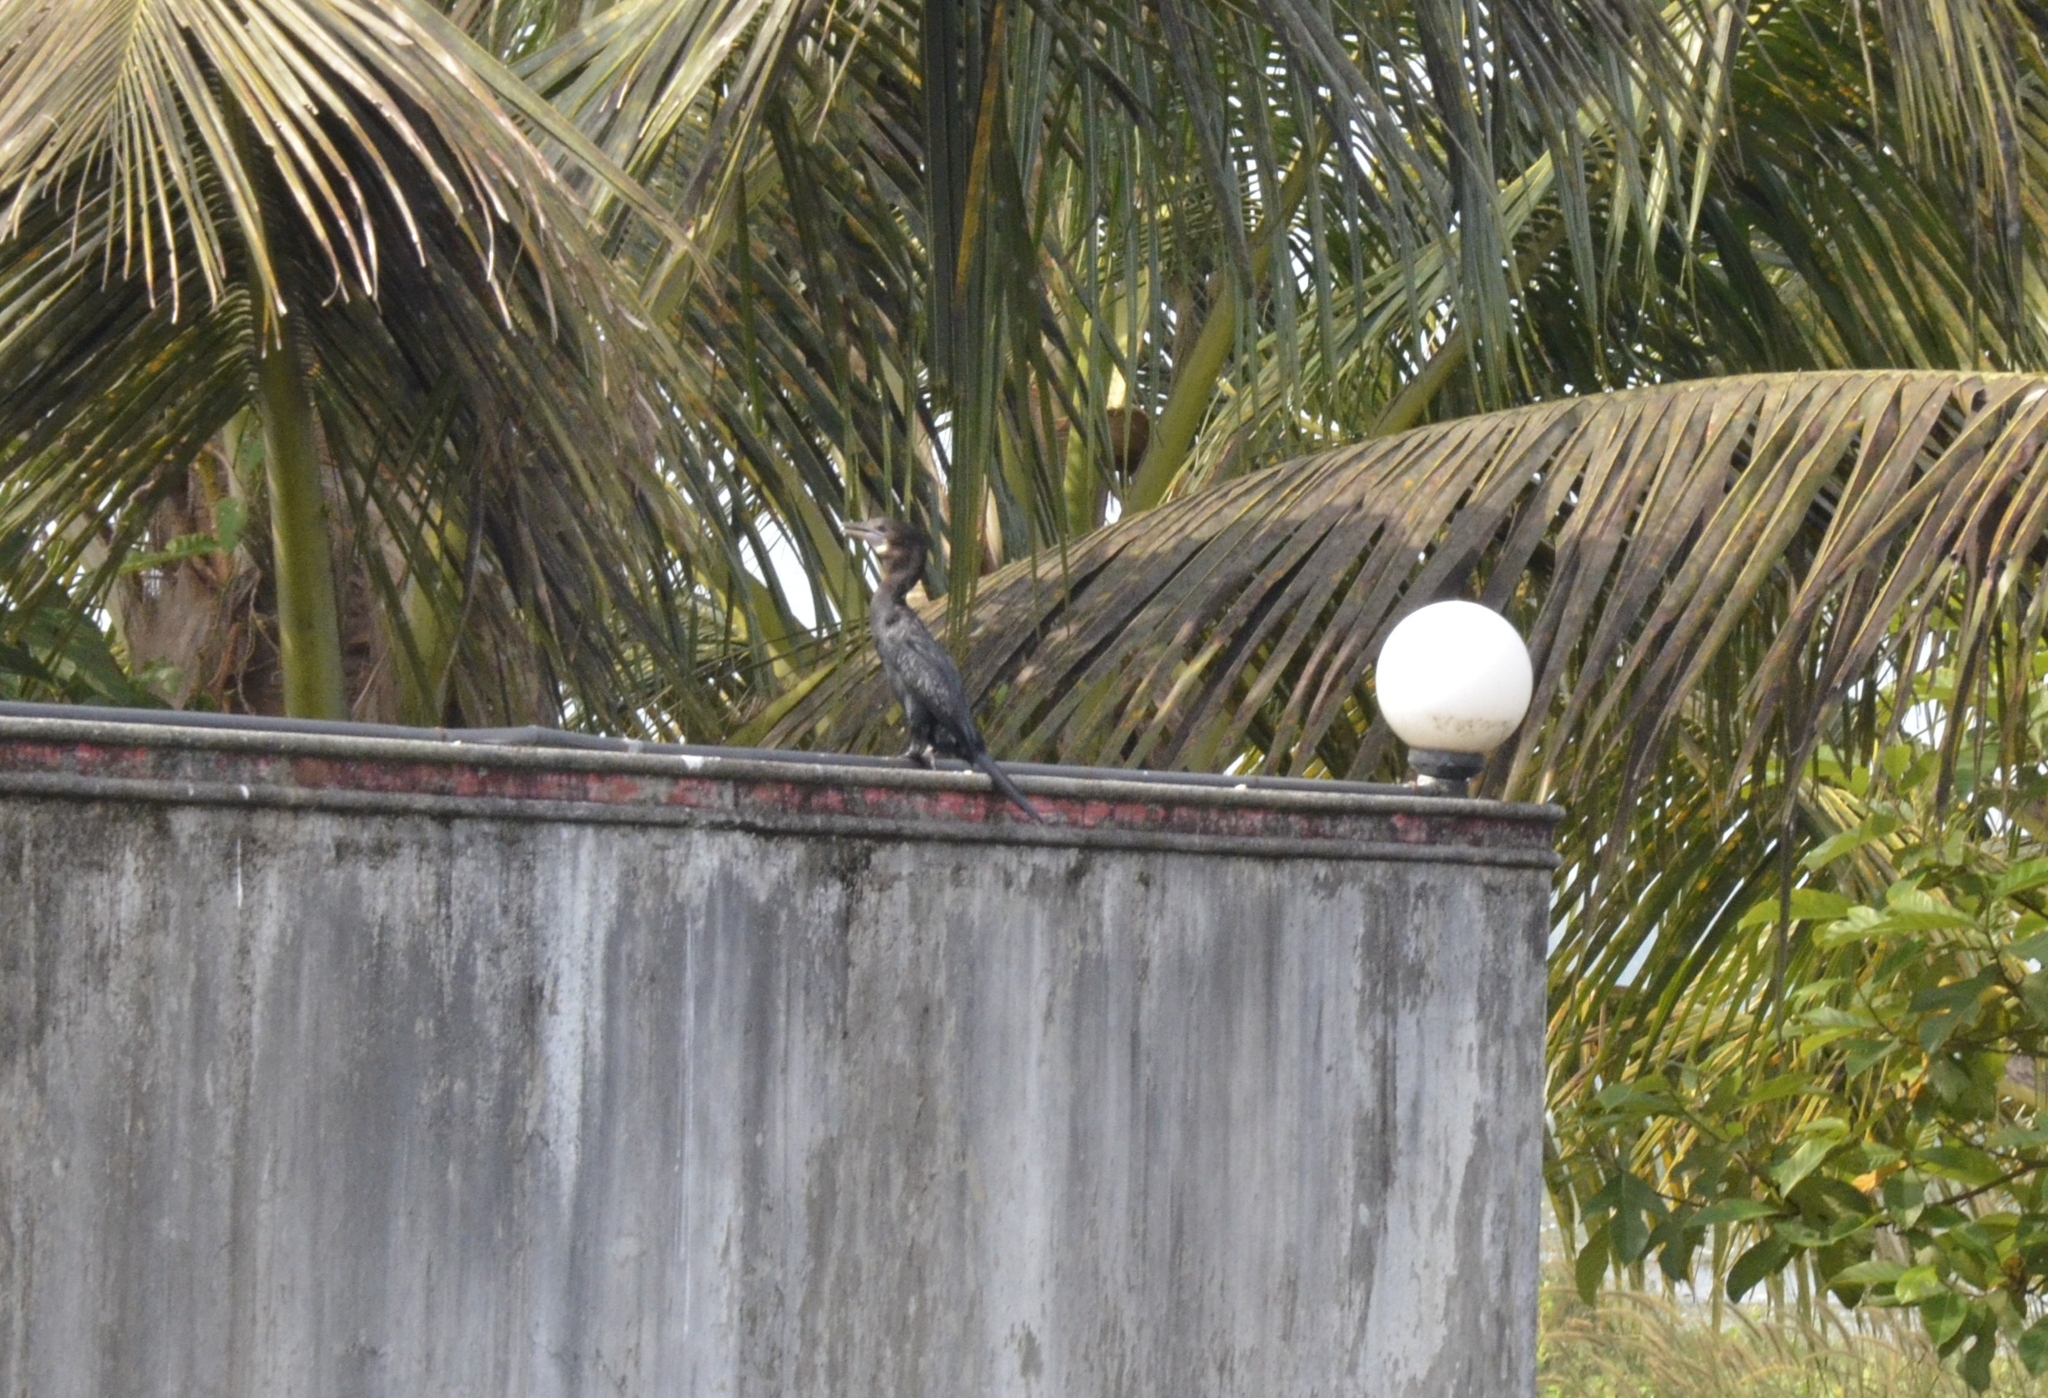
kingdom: Animalia
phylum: Chordata
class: Aves
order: Suliformes
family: Phalacrocoracidae
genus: Microcarbo
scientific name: Microcarbo niger
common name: Little cormorant
